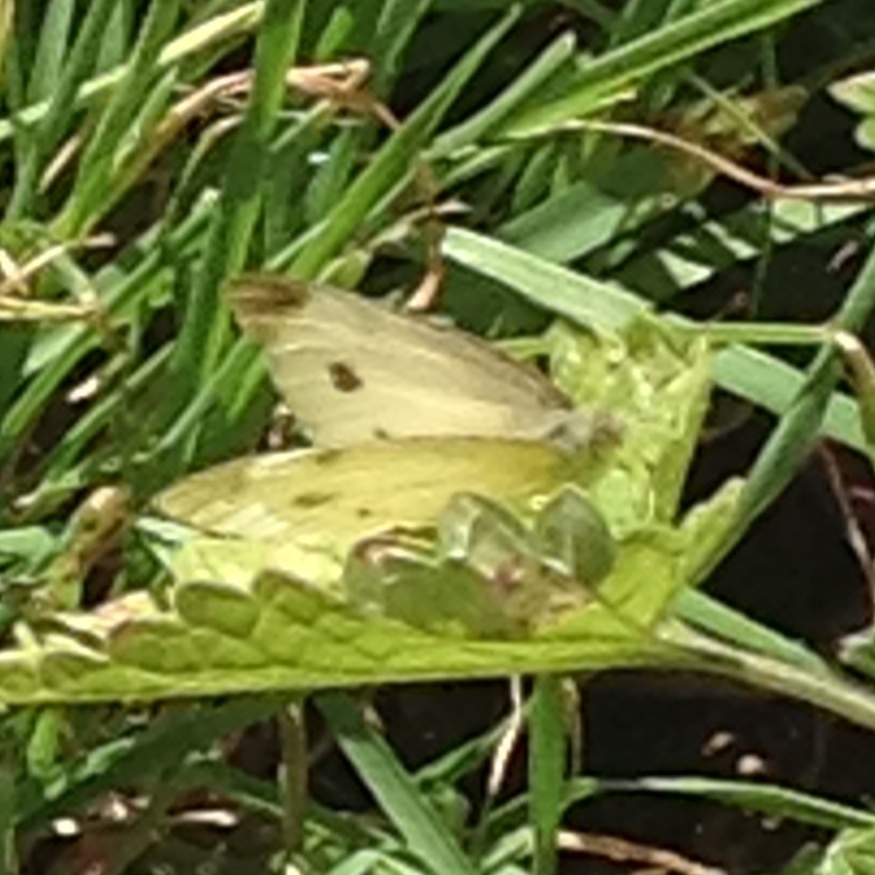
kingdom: Animalia
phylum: Arthropoda
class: Insecta
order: Lepidoptera
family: Pieridae
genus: Pieris
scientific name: Pieris rapae
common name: Small white
